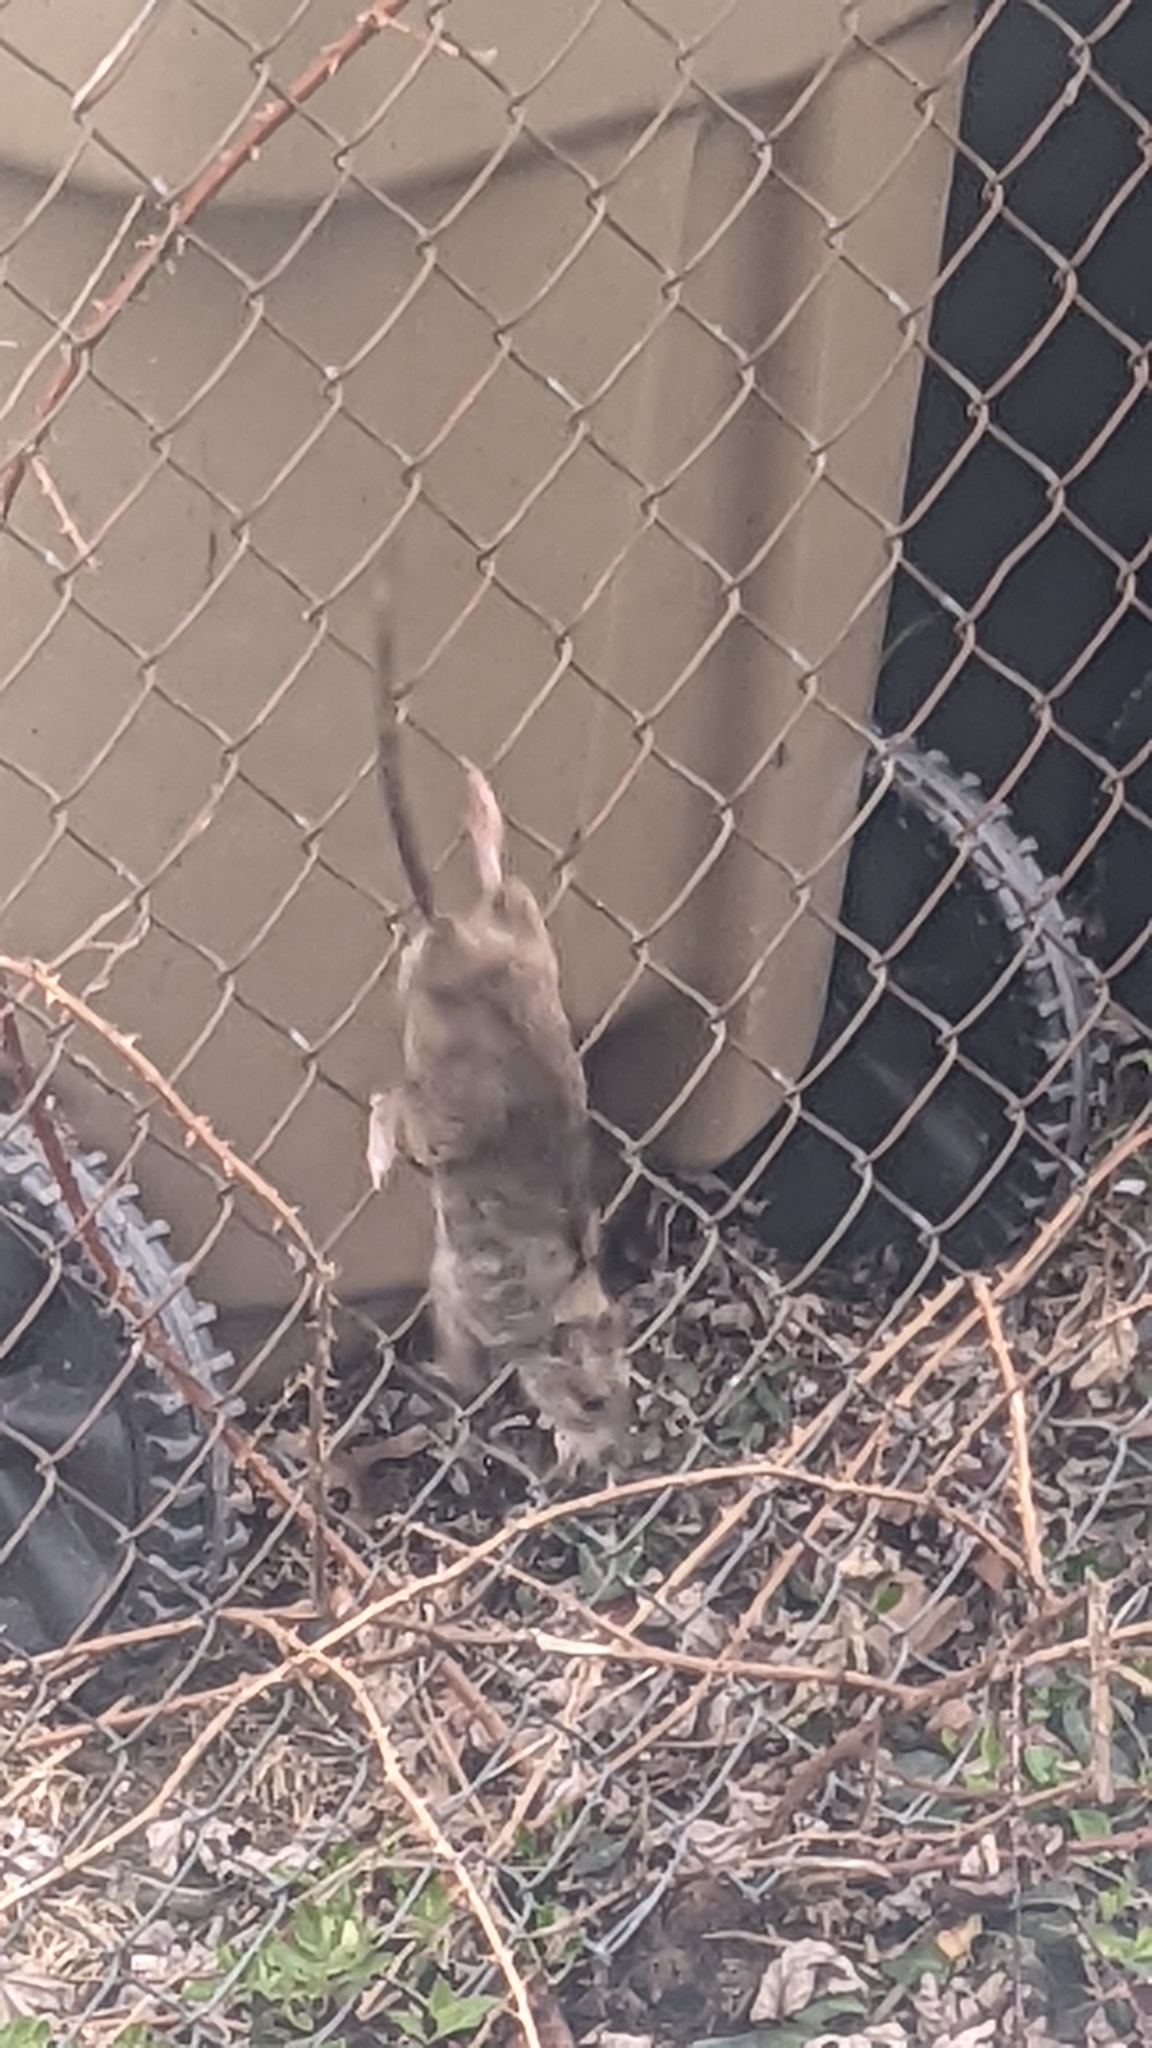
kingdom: Animalia
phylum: Chordata
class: Mammalia
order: Rodentia
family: Muridae
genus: Rattus
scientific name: Rattus norvegicus
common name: Brown rat
